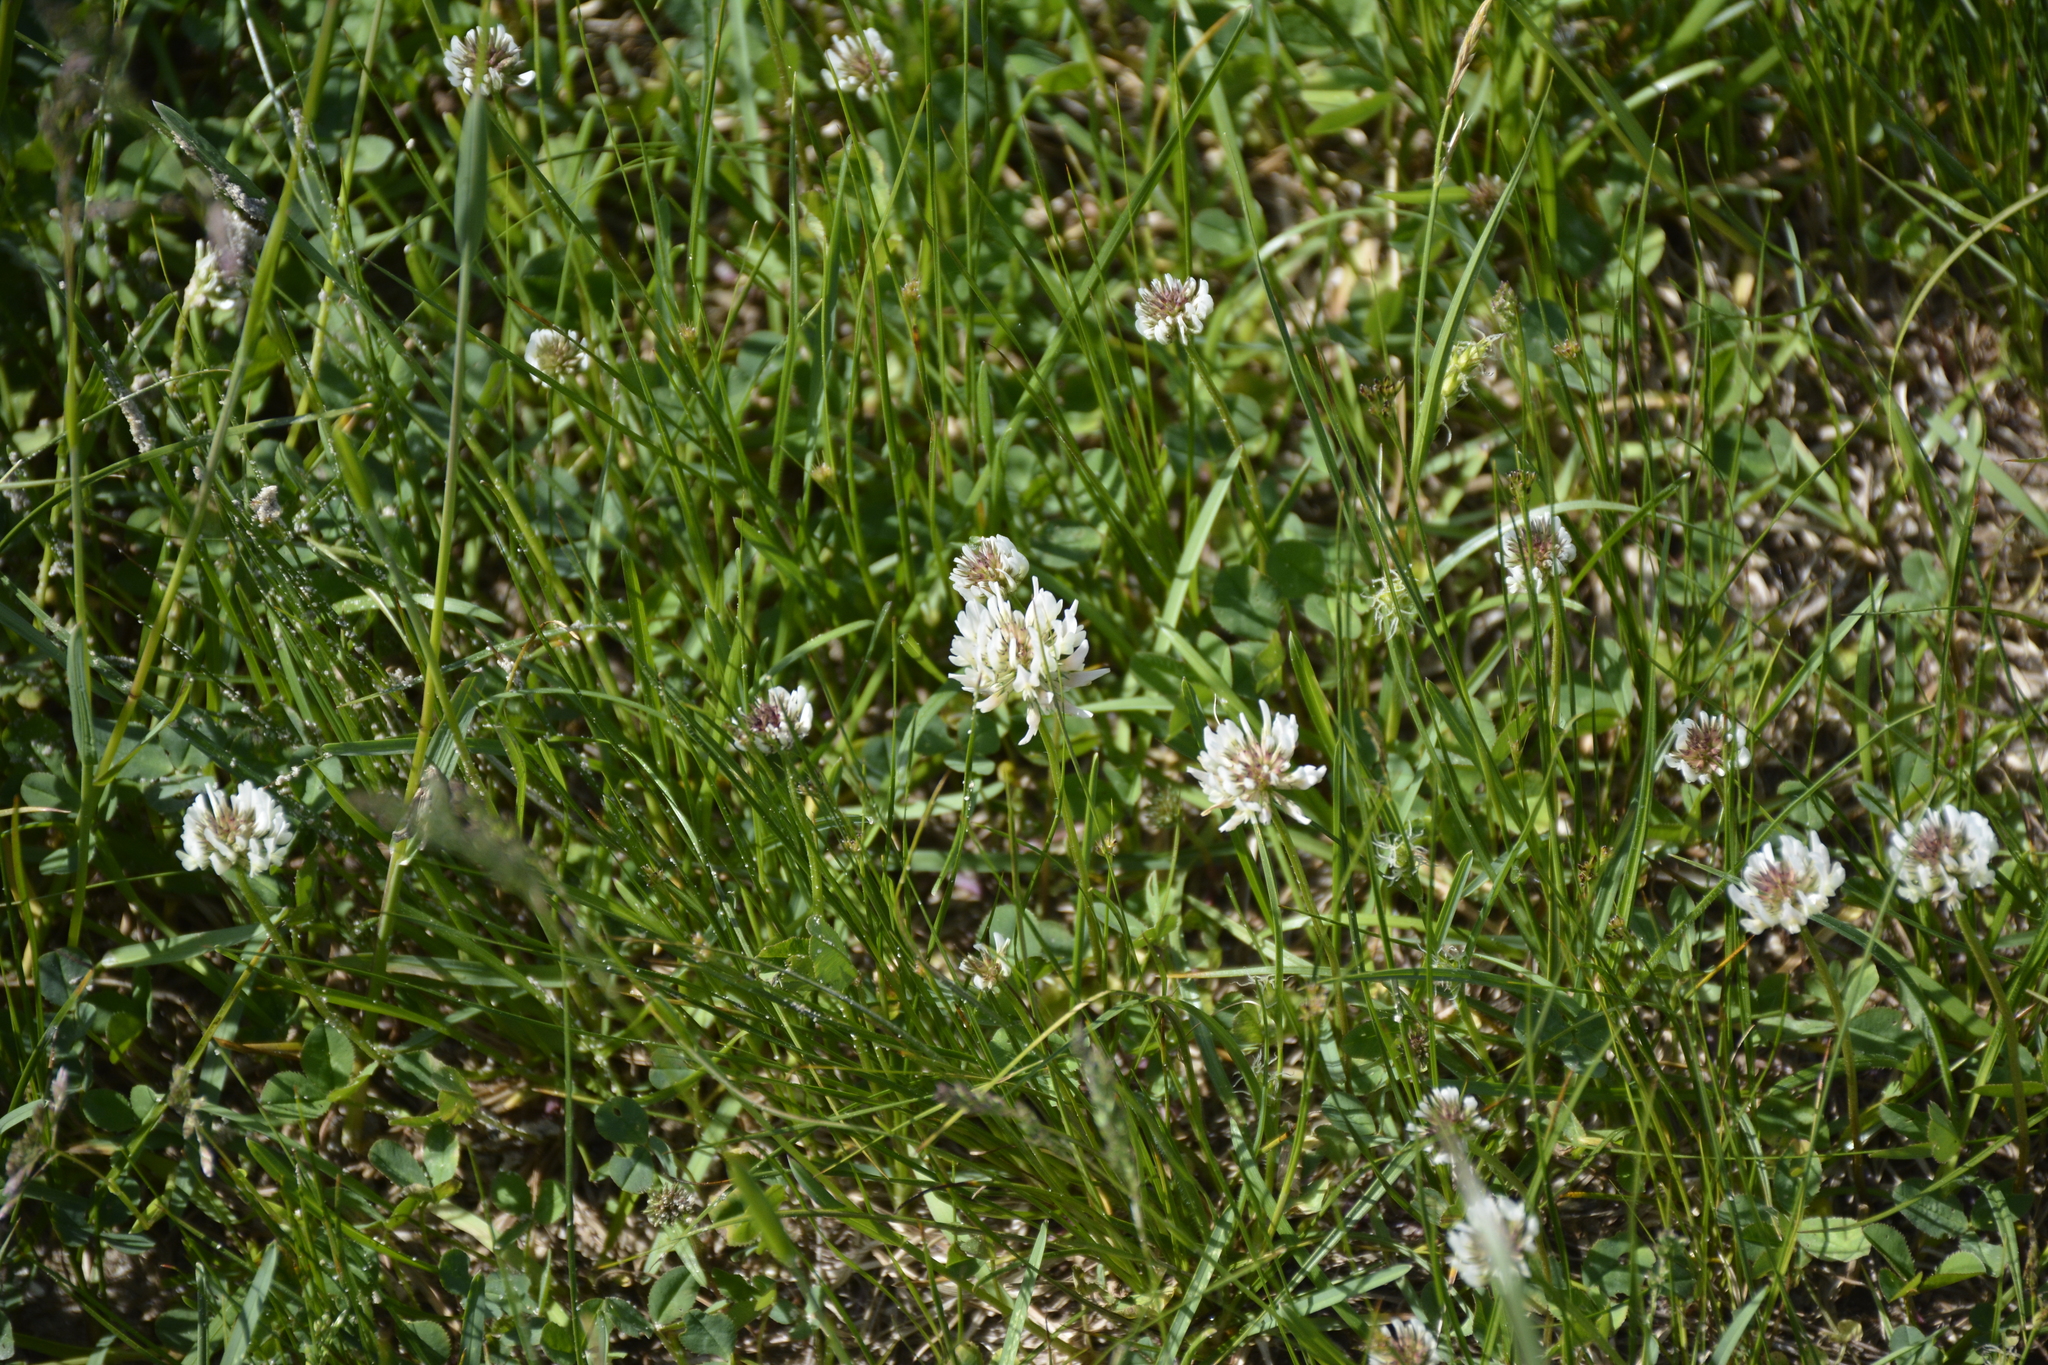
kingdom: Plantae
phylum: Tracheophyta
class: Magnoliopsida
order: Fabales
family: Fabaceae
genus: Trifolium
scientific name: Trifolium repens
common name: White clover
